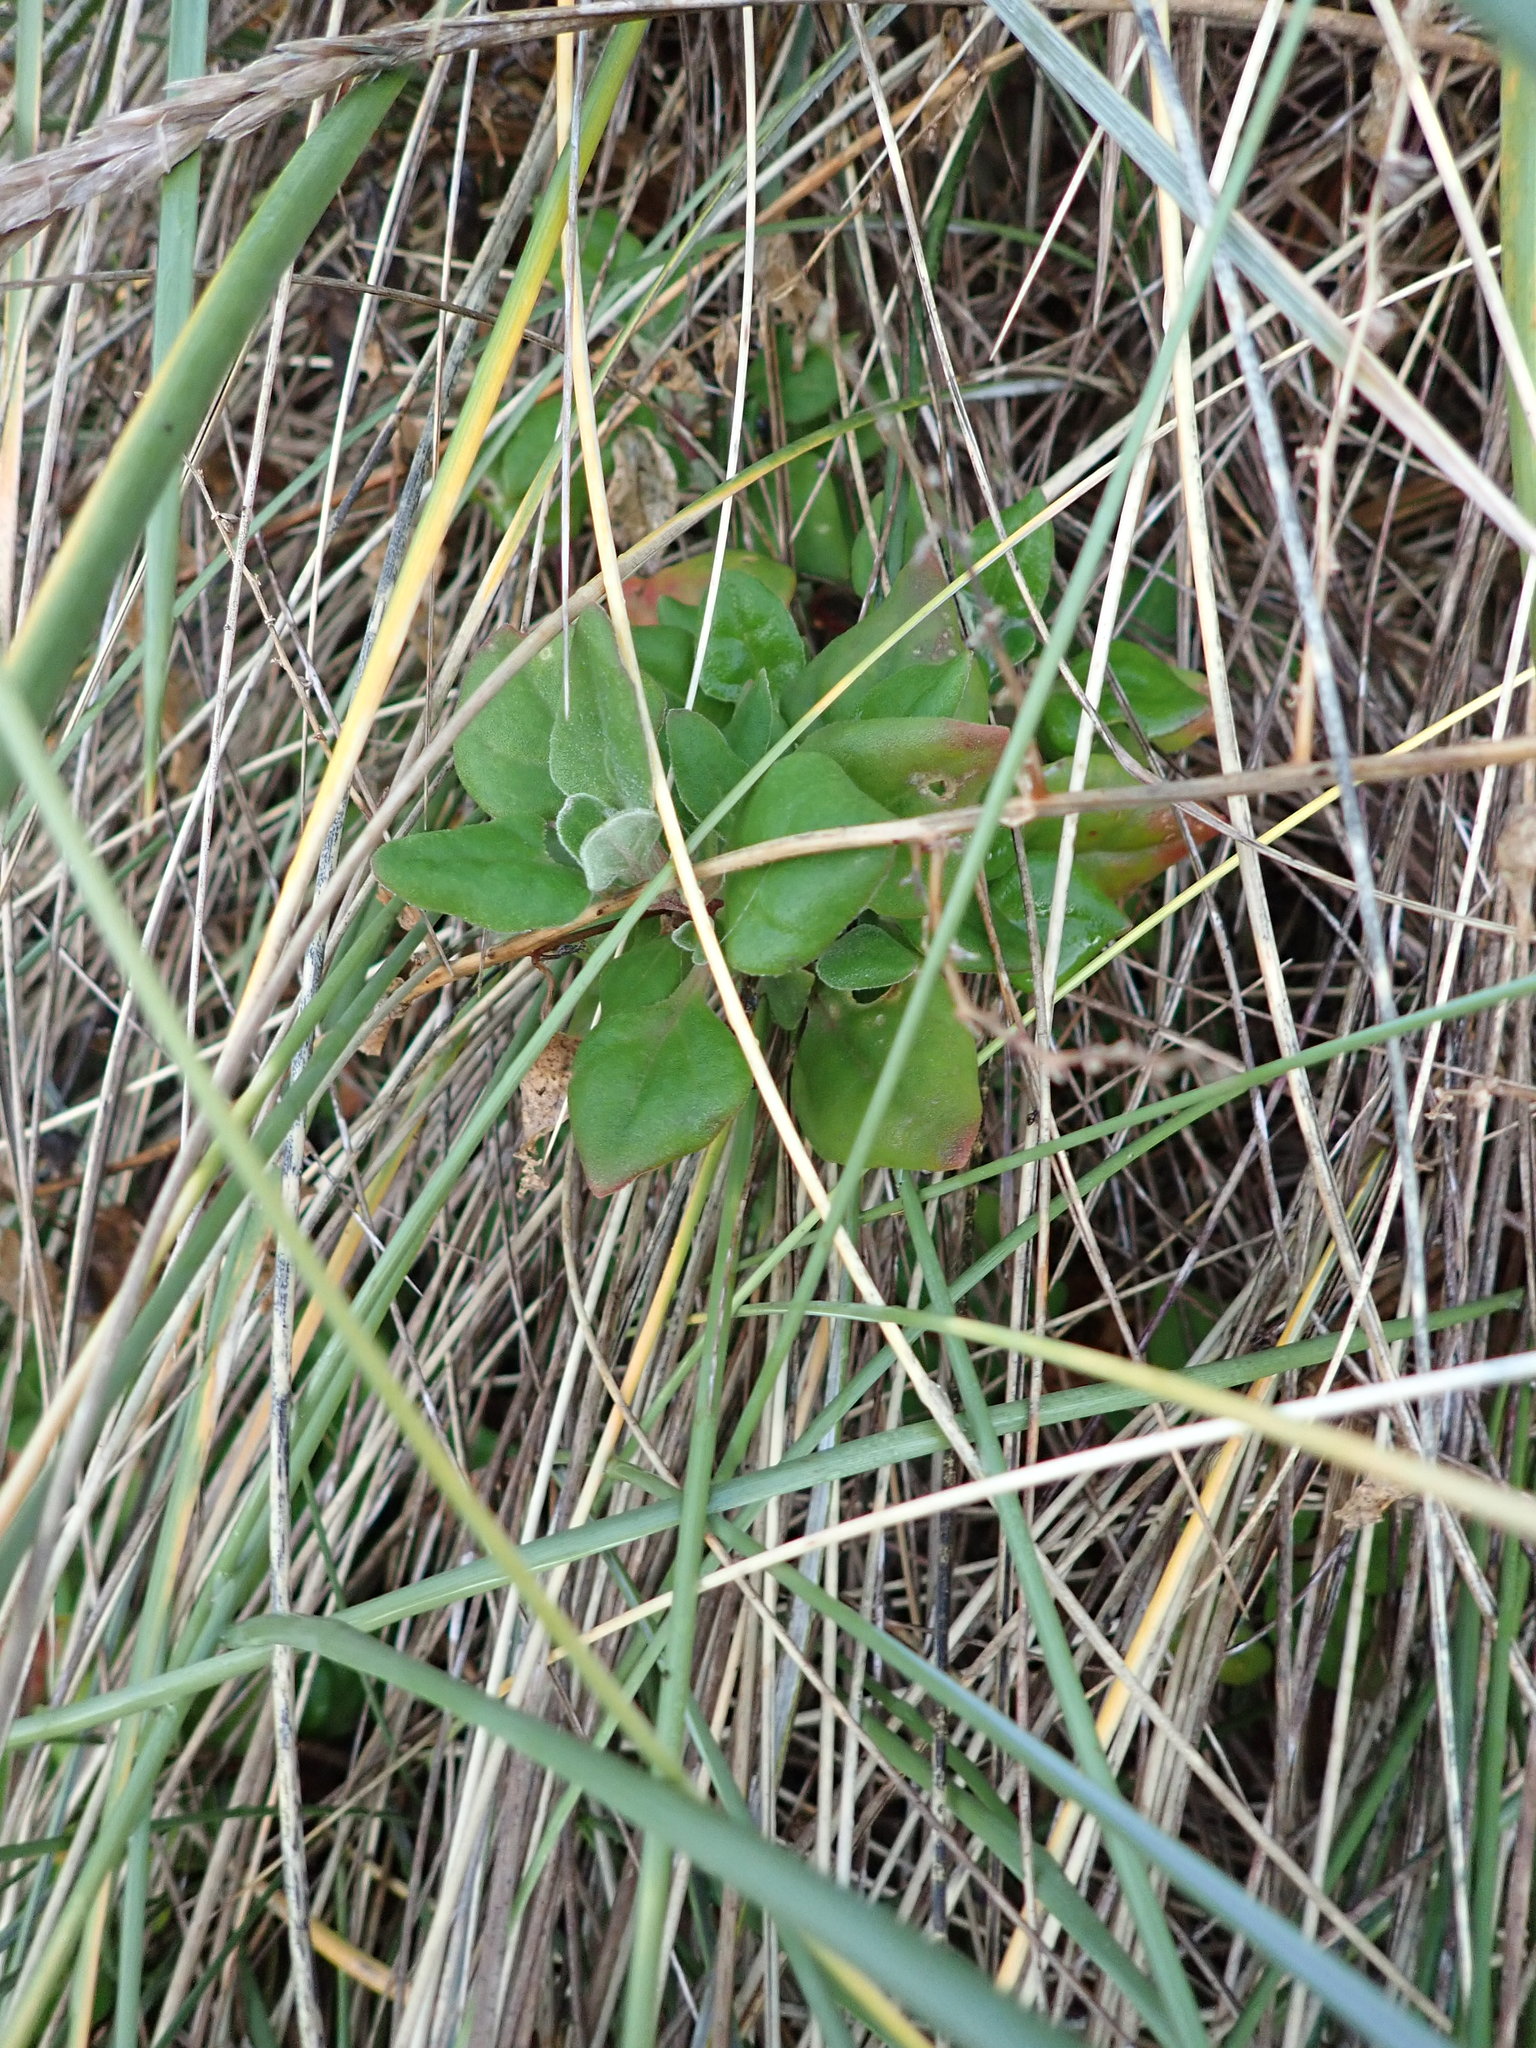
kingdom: Plantae
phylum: Tracheophyta
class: Magnoliopsida
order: Caryophyllales
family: Aizoaceae
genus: Tetragonia
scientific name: Tetragonia implexicoma
